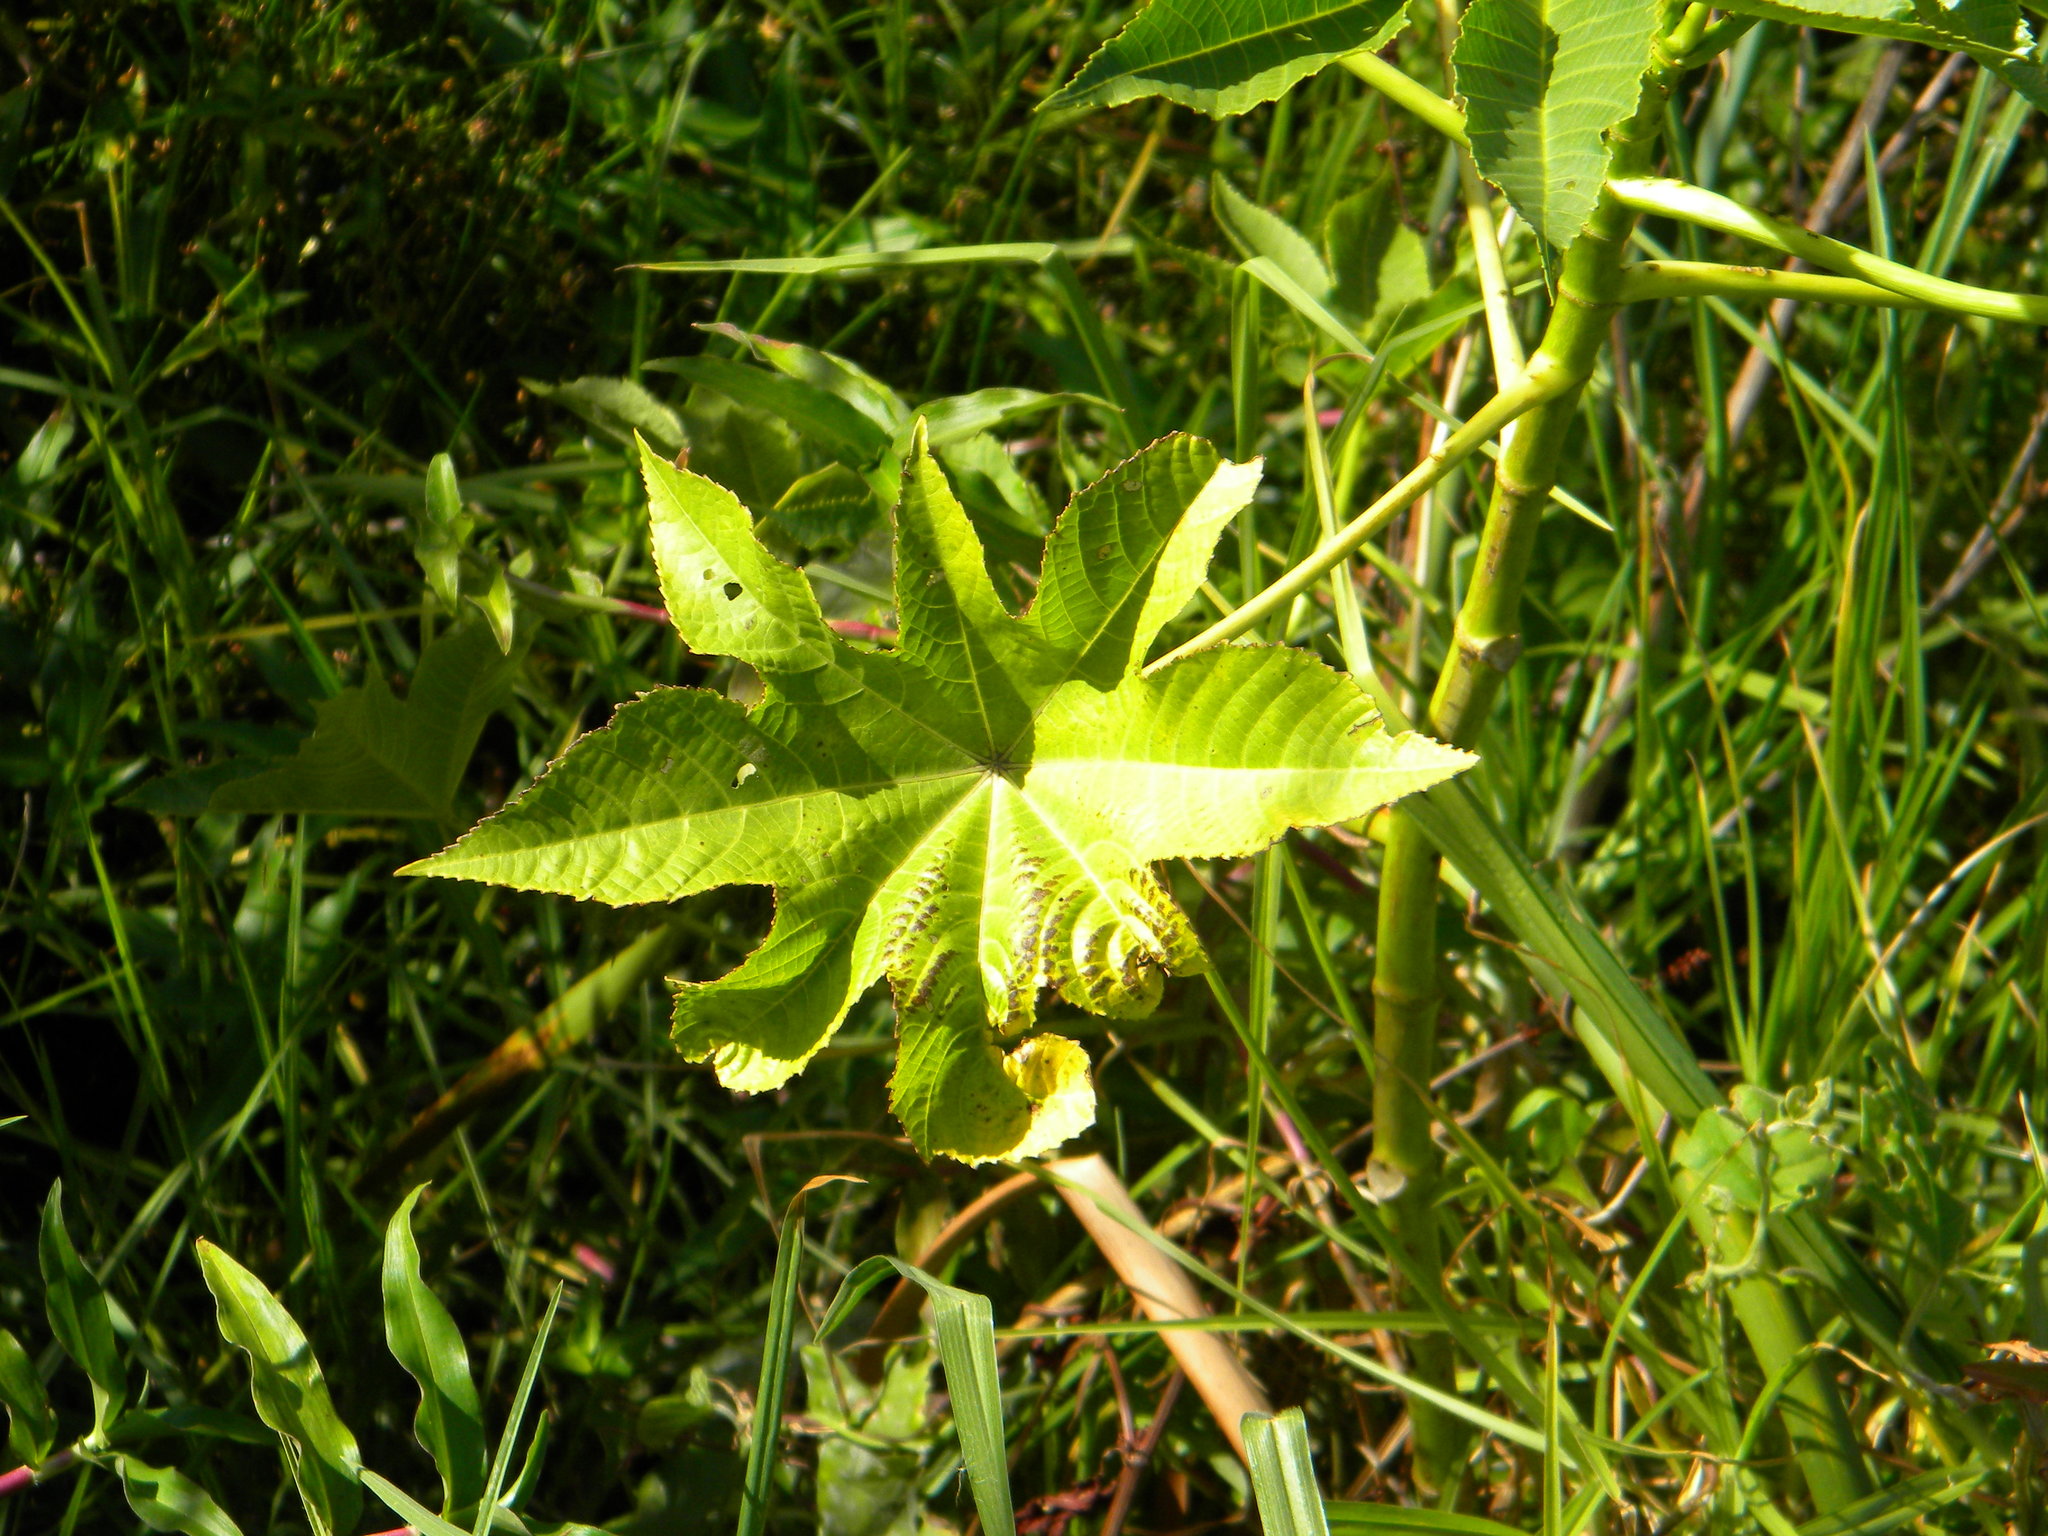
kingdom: Plantae
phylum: Tracheophyta
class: Magnoliopsida
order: Malpighiales
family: Euphorbiaceae
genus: Ricinus
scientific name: Ricinus communis
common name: Castor-oil-plant
